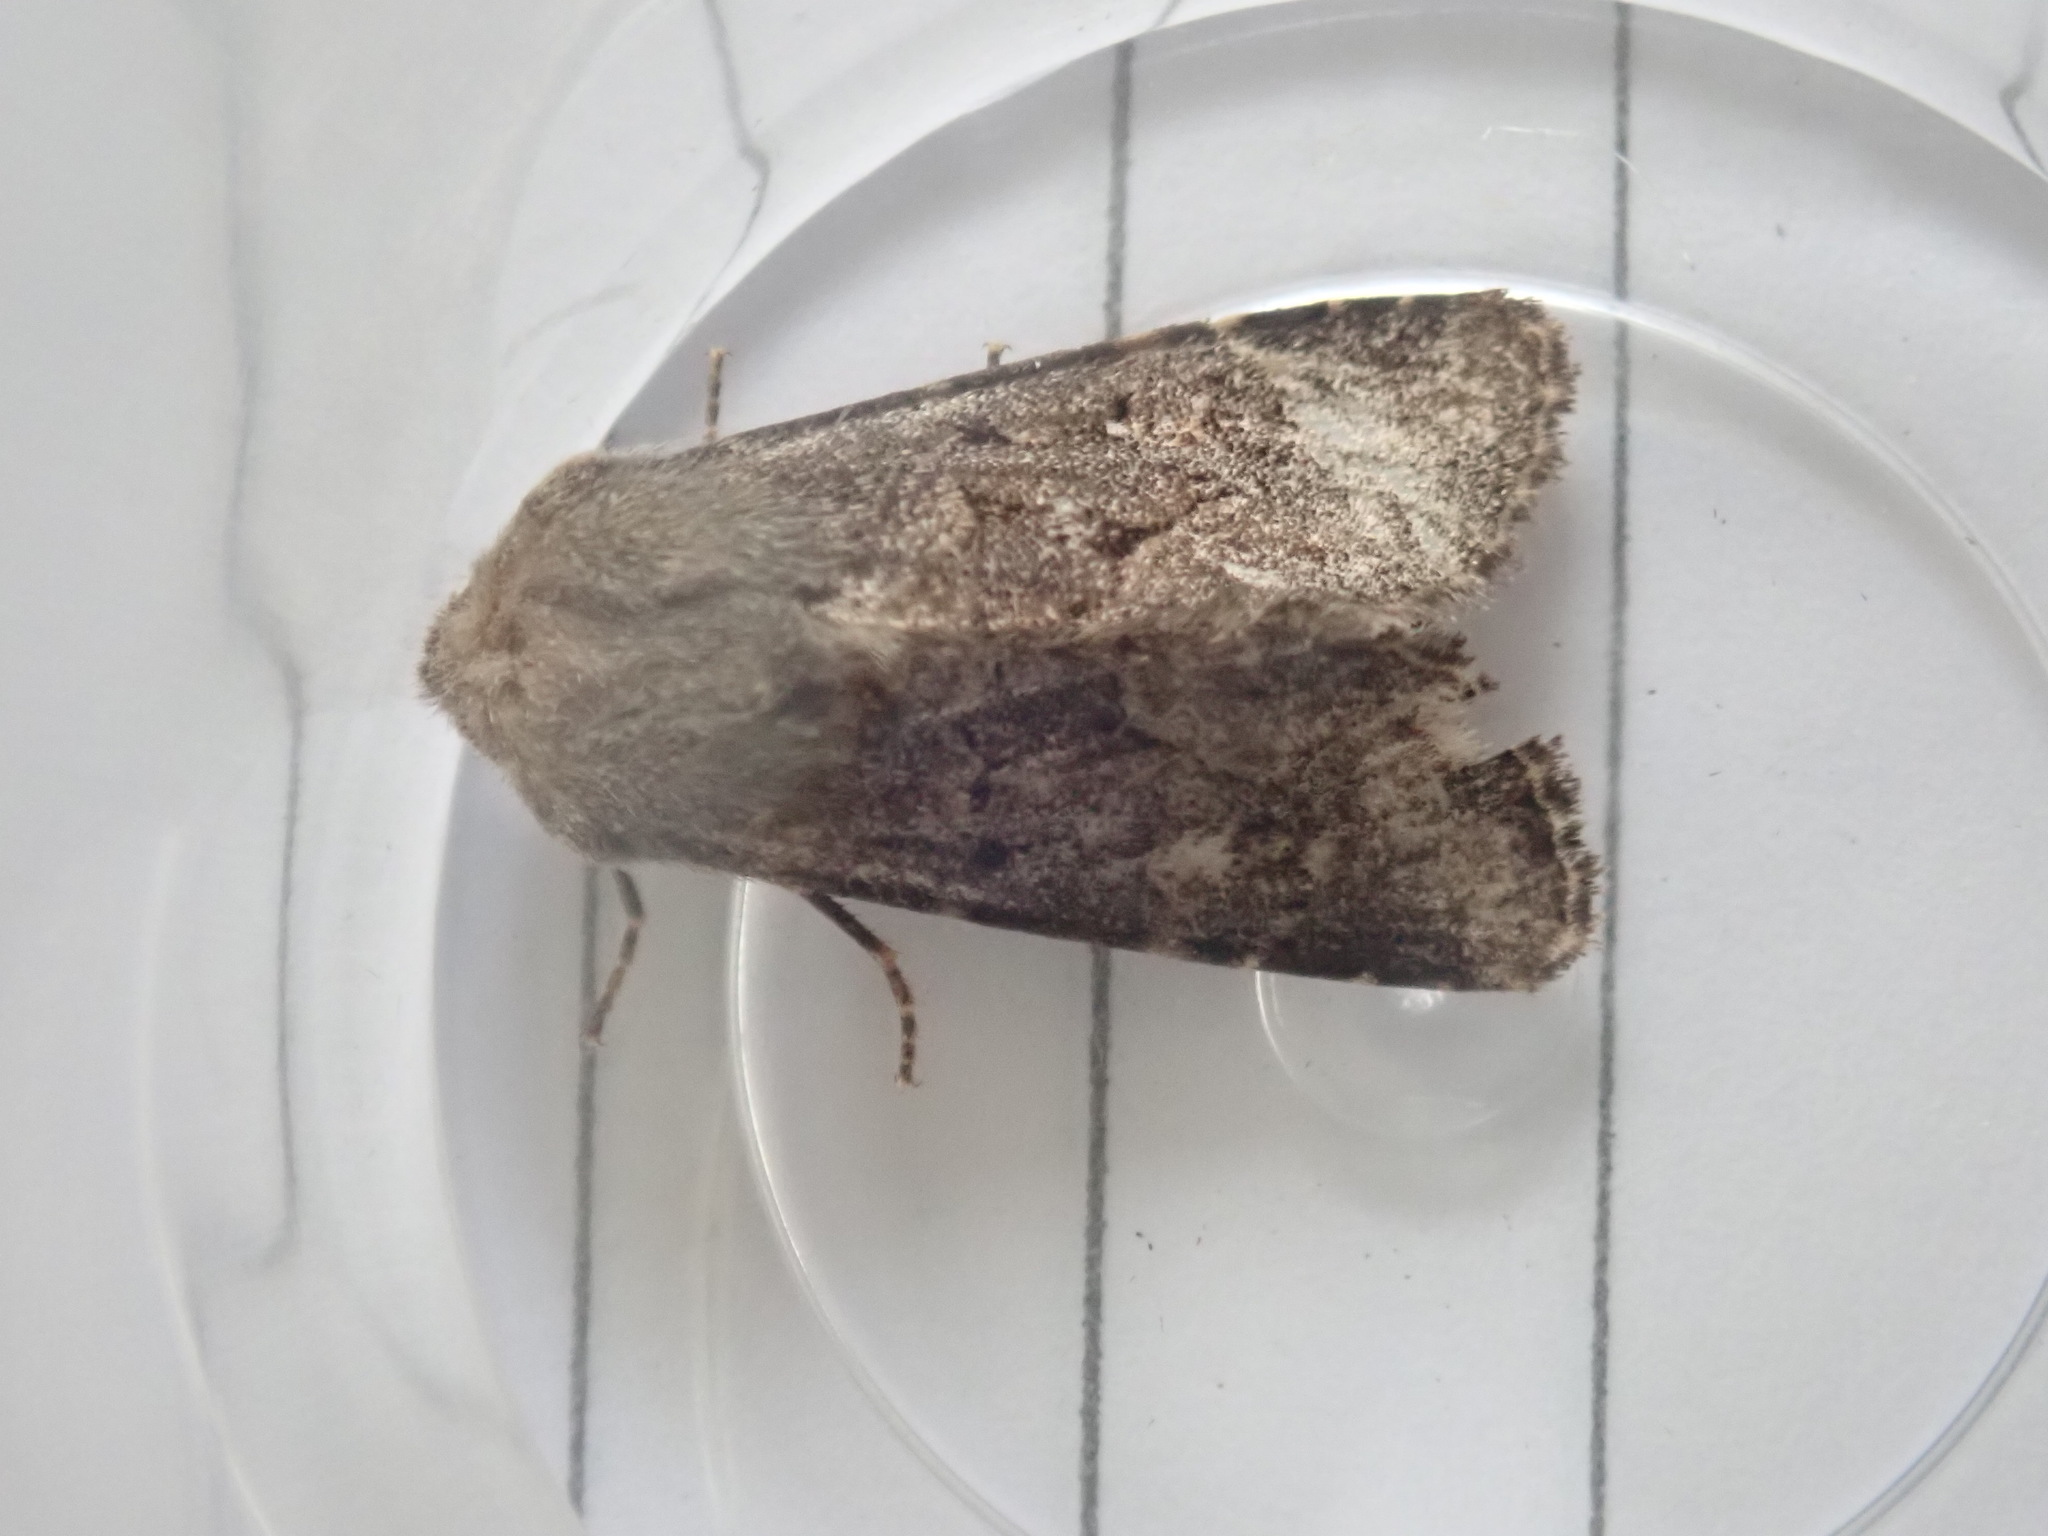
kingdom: Animalia
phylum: Arthropoda
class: Insecta
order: Lepidoptera
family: Noctuidae
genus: Luperina
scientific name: Luperina testacea
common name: Flounced rustic
